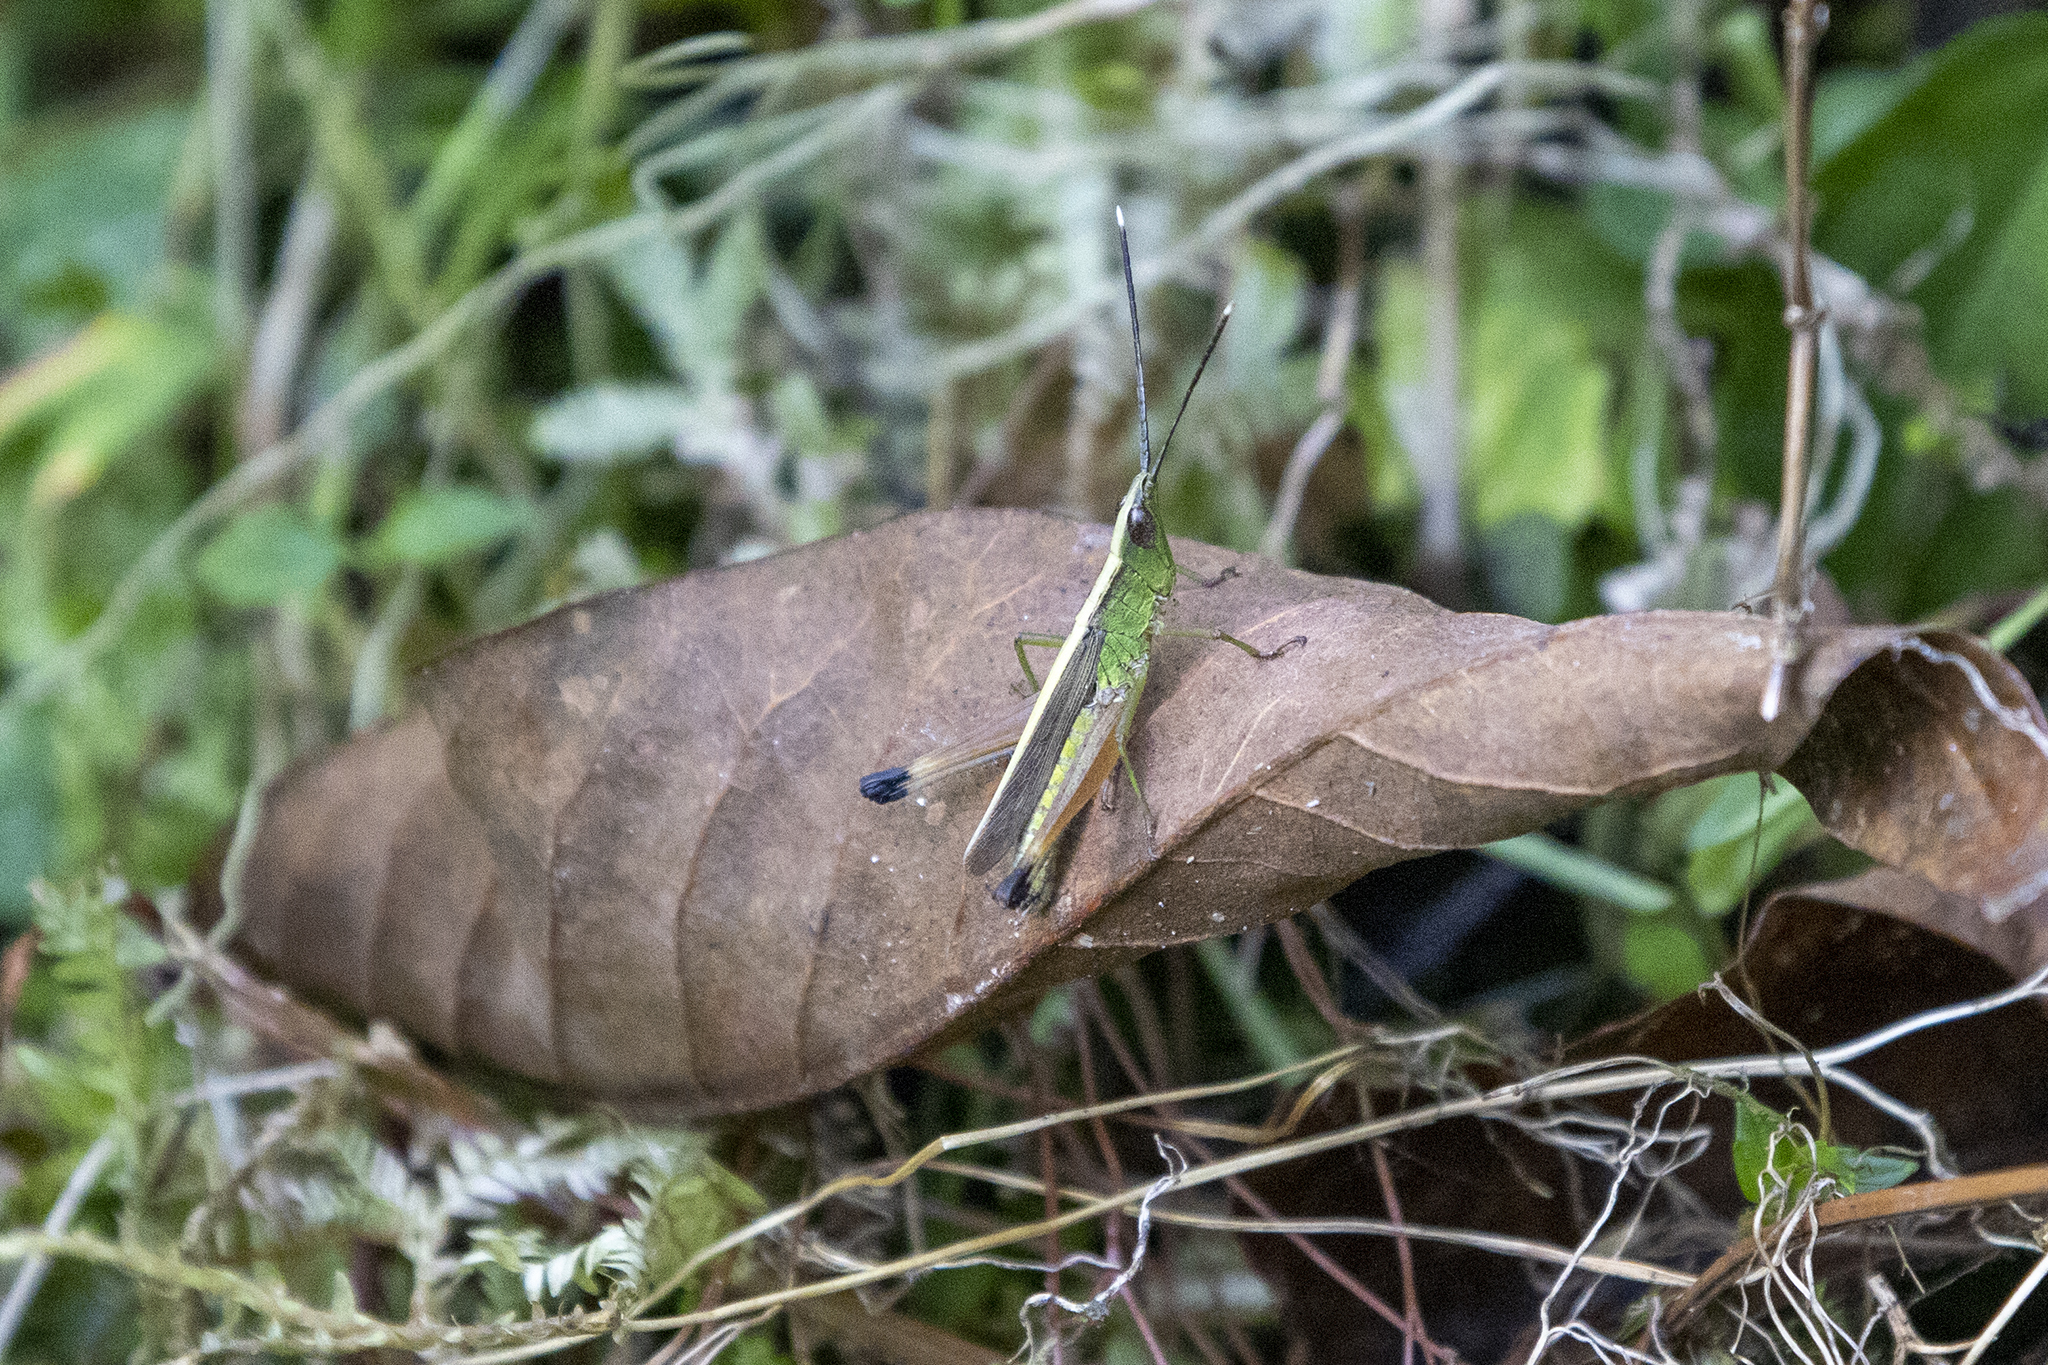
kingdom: Animalia
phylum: Arthropoda
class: Insecta
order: Orthoptera
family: Acrididae
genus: Phlaeoba
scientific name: Phlaeoba antennata
